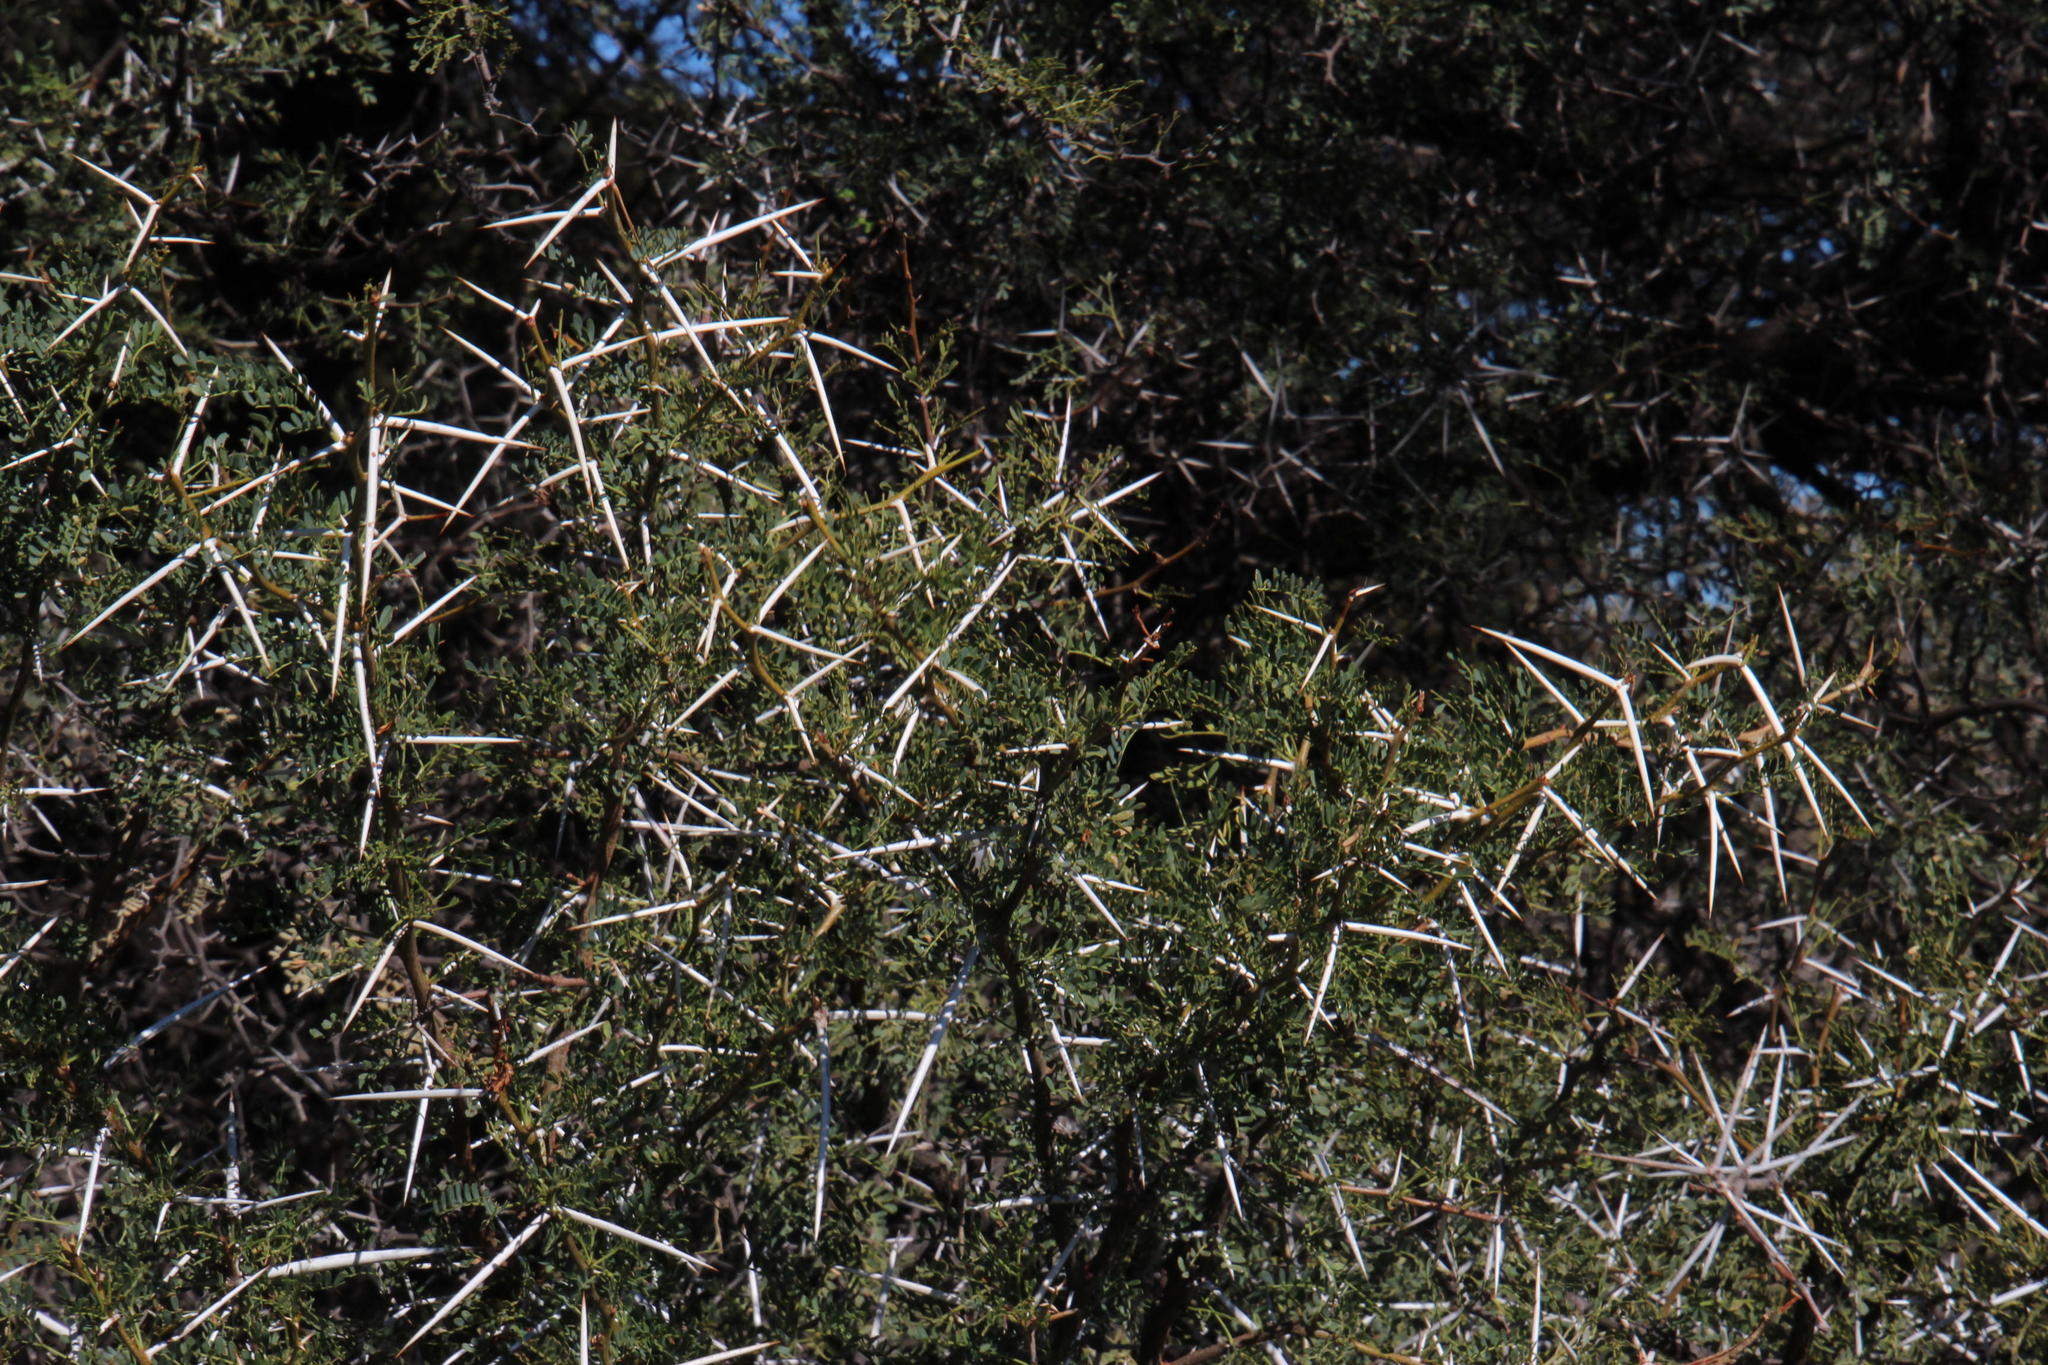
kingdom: Plantae
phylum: Tracheophyta
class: Magnoliopsida
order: Fabales
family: Fabaceae
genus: Vachellia
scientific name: Vachellia karroo
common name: Sweet thorn
